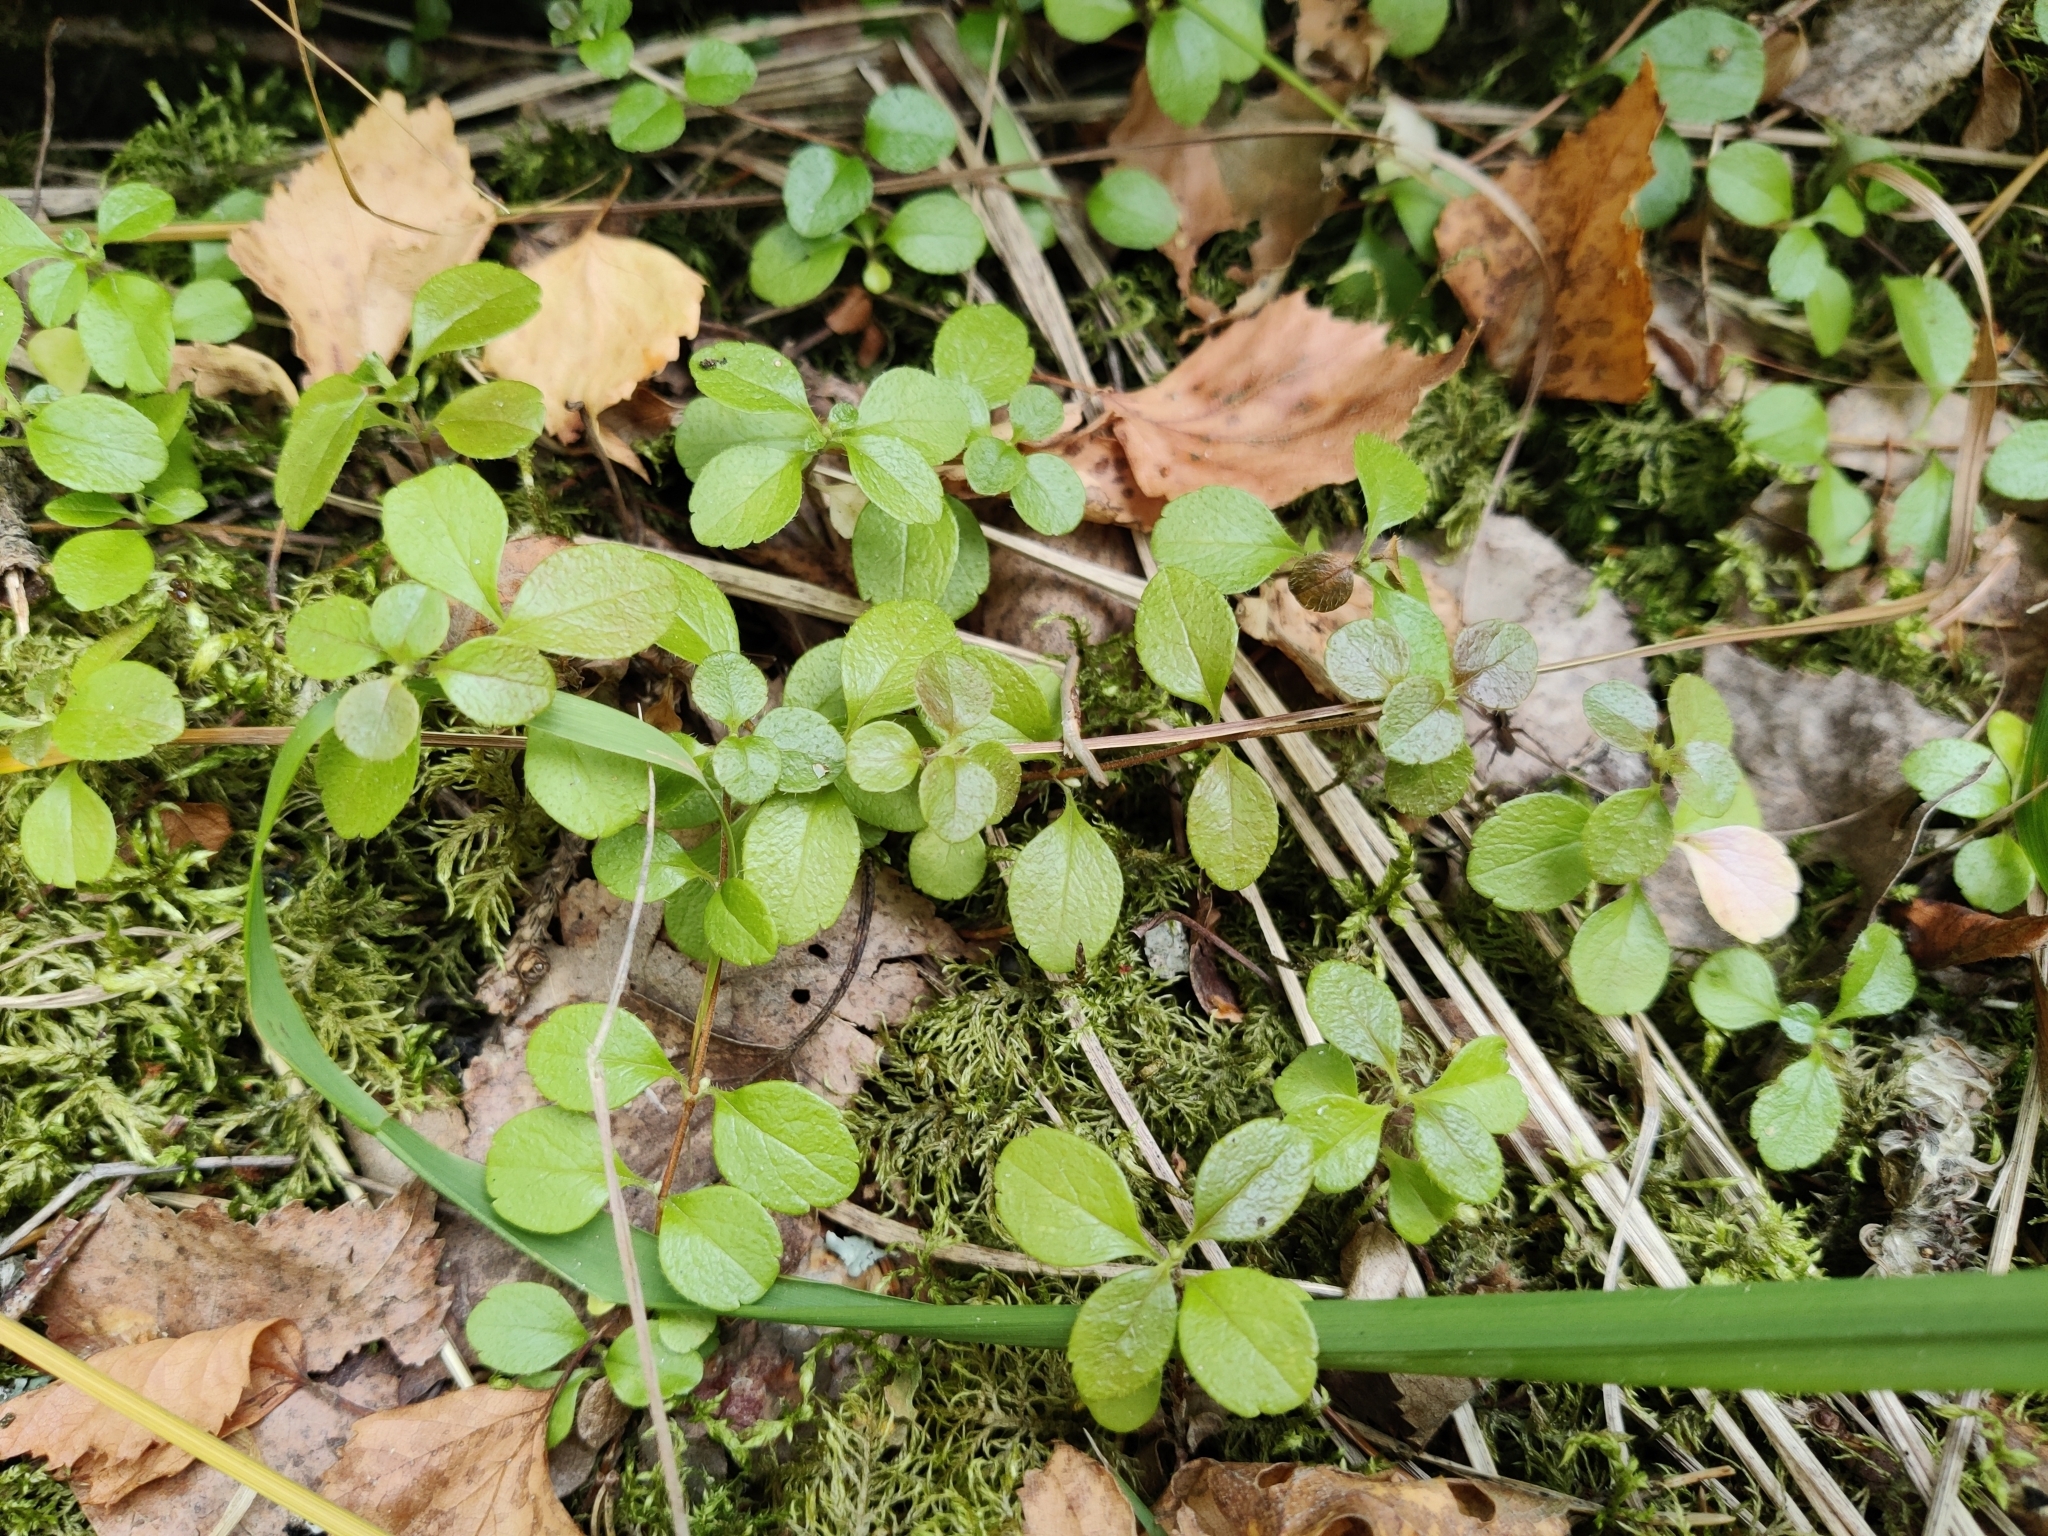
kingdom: Plantae
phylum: Tracheophyta
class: Magnoliopsida
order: Dipsacales
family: Caprifoliaceae
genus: Linnaea
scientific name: Linnaea borealis
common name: Twinflower
